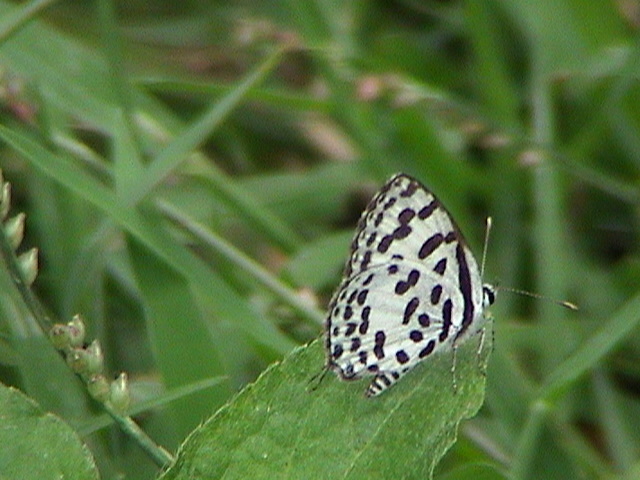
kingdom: Animalia
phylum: Arthropoda
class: Insecta
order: Lepidoptera
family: Lycaenidae
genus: Castalius
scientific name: Castalius rosimon
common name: Common pierrot
